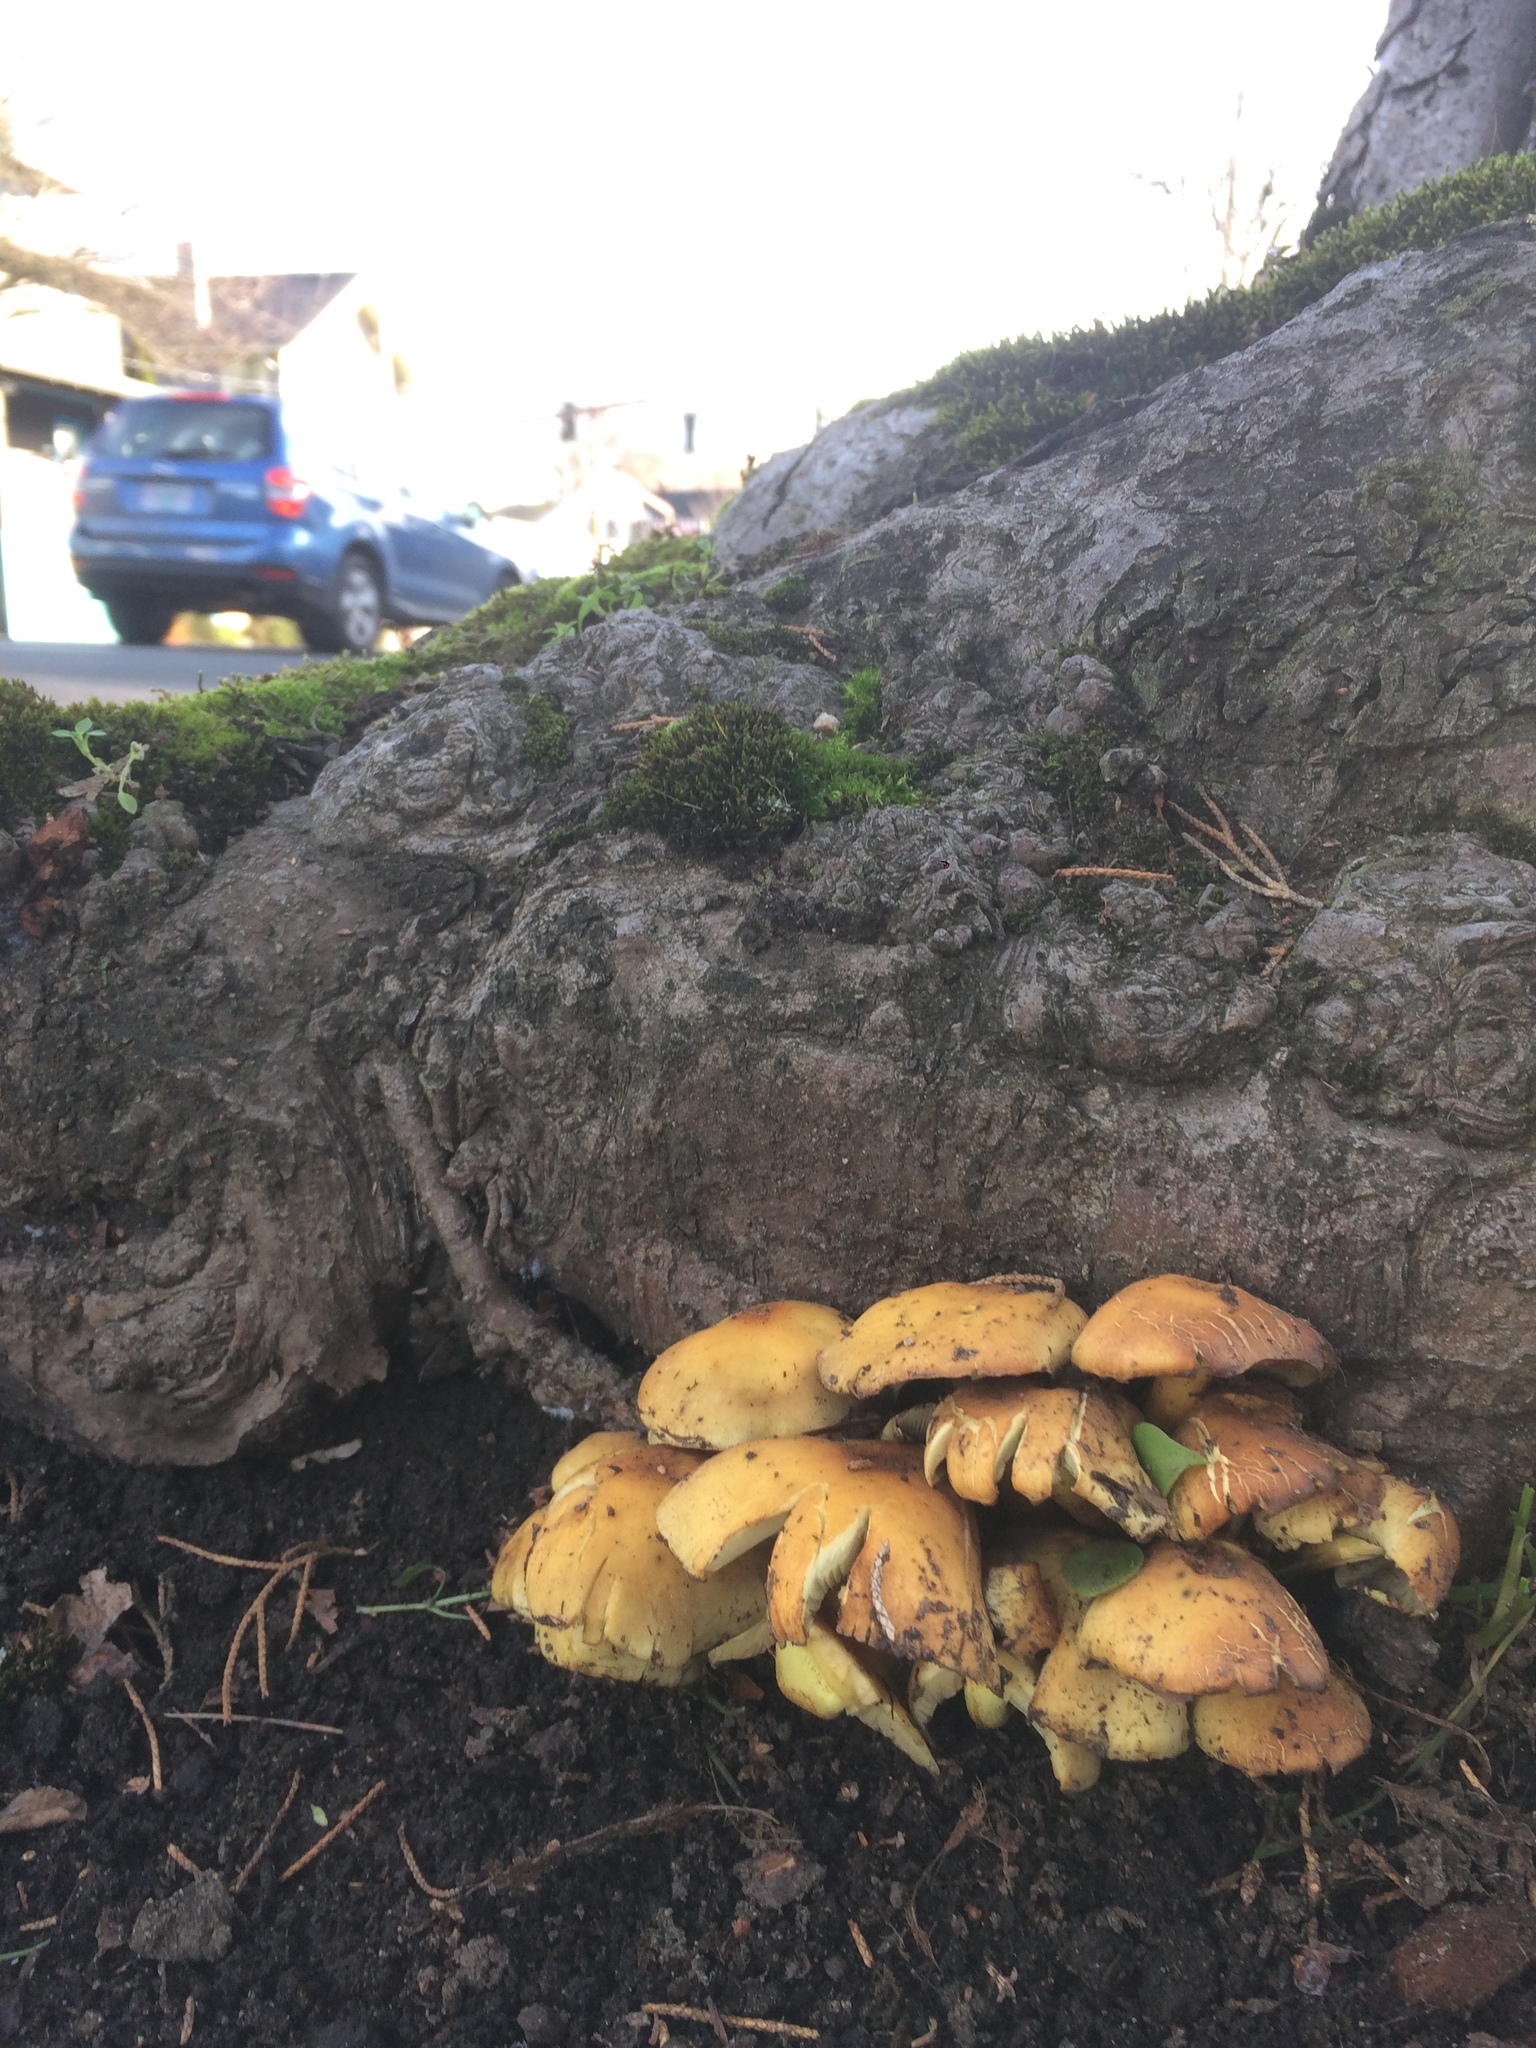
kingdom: Fungi
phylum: Basidiomycota
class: Agaricomycetes
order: Agaricales
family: Strophariaceae
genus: Hypholoma
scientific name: Hypholoma fasciculare
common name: Sulphur tuft
